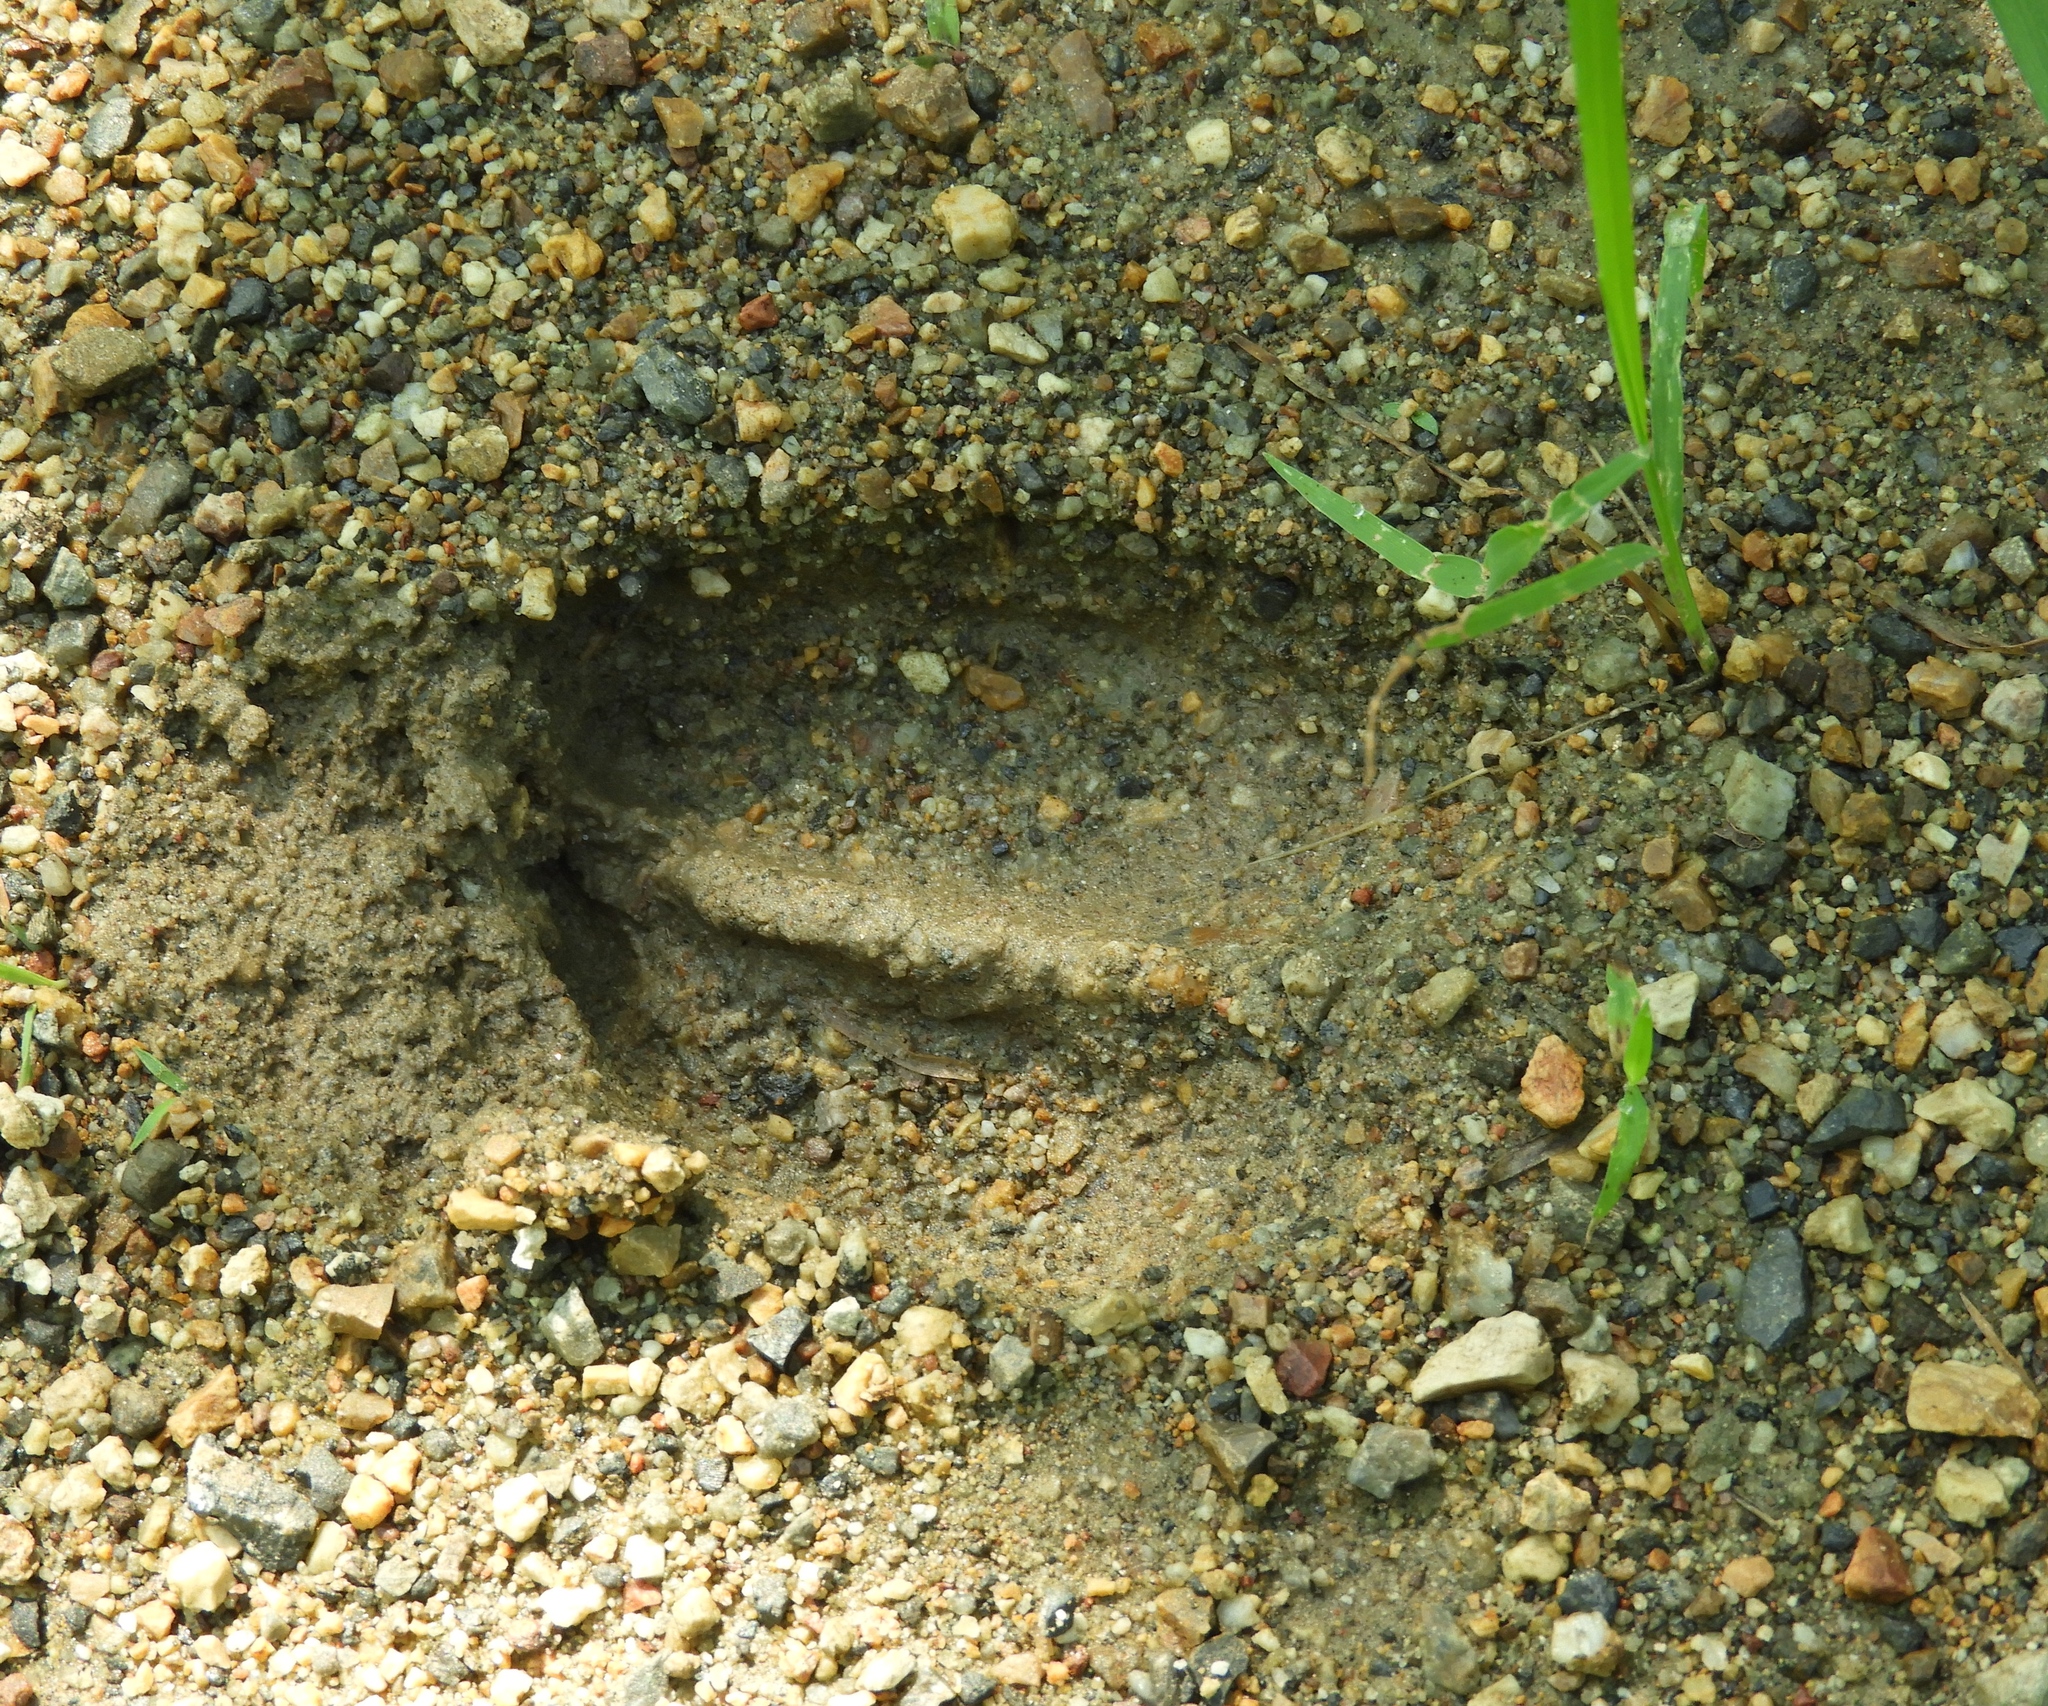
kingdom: Animalia
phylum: Chordata
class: Mammalia
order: Artiodactyla
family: Cervidae
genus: Odocoileus
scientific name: Odocoileus virginianus
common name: White-tailed deer
